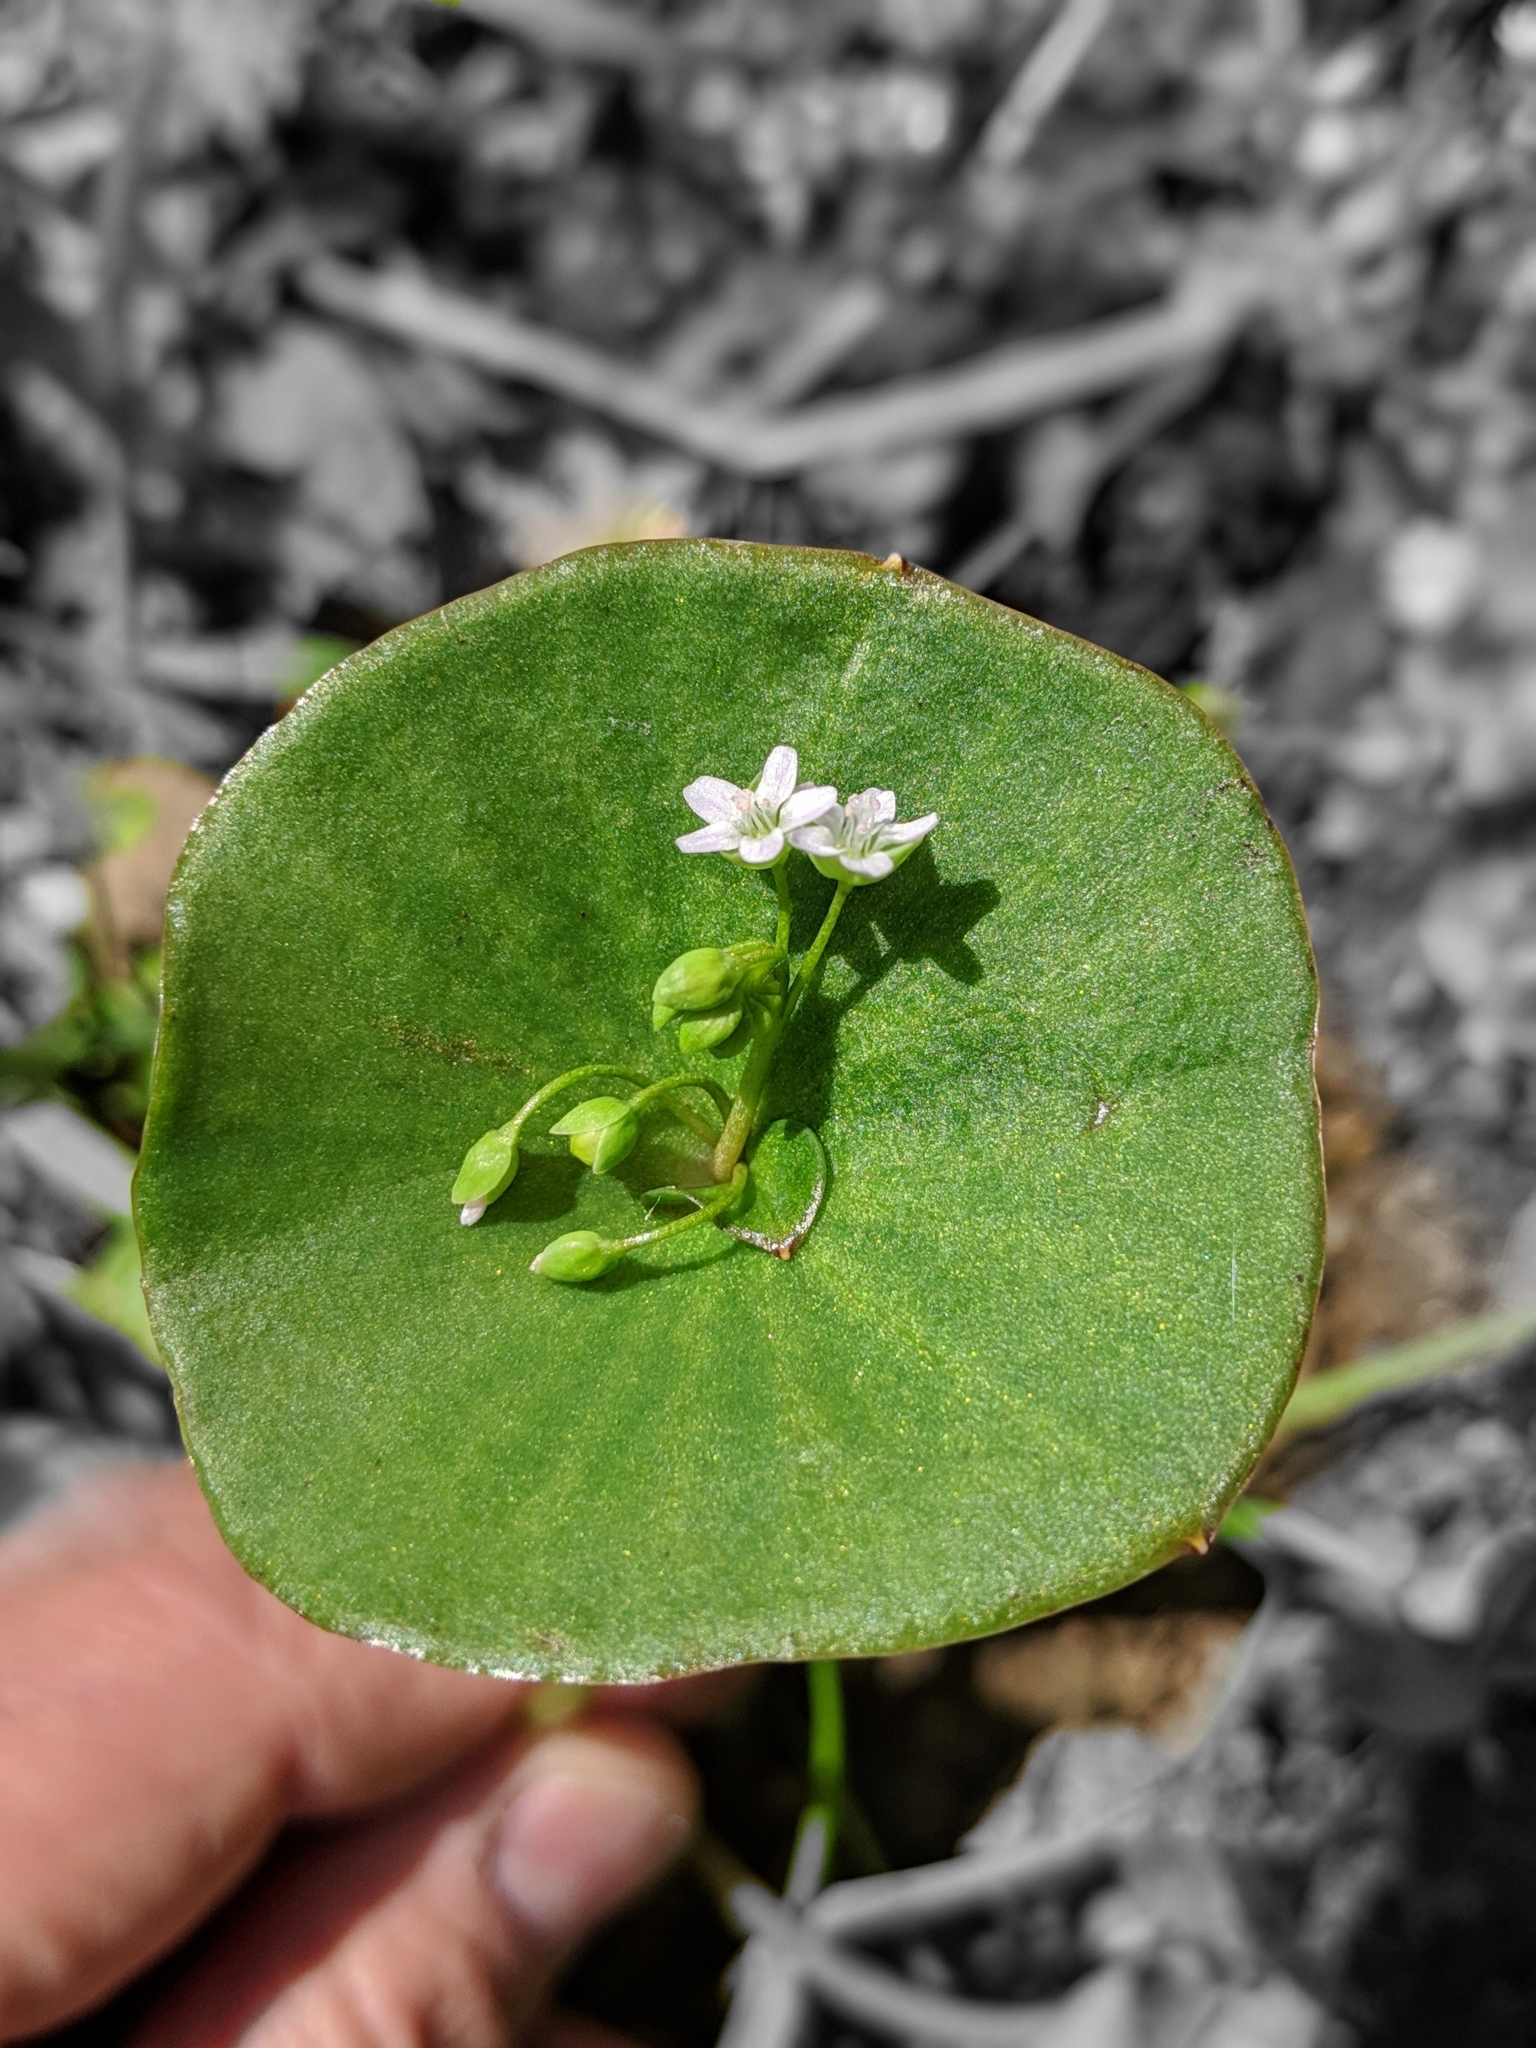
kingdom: Plantae
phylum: Tracheophyta
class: Magnoliopsida
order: Caryophyllales
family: Montiaceae
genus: Claytonia
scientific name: Claytonia perfoliata
